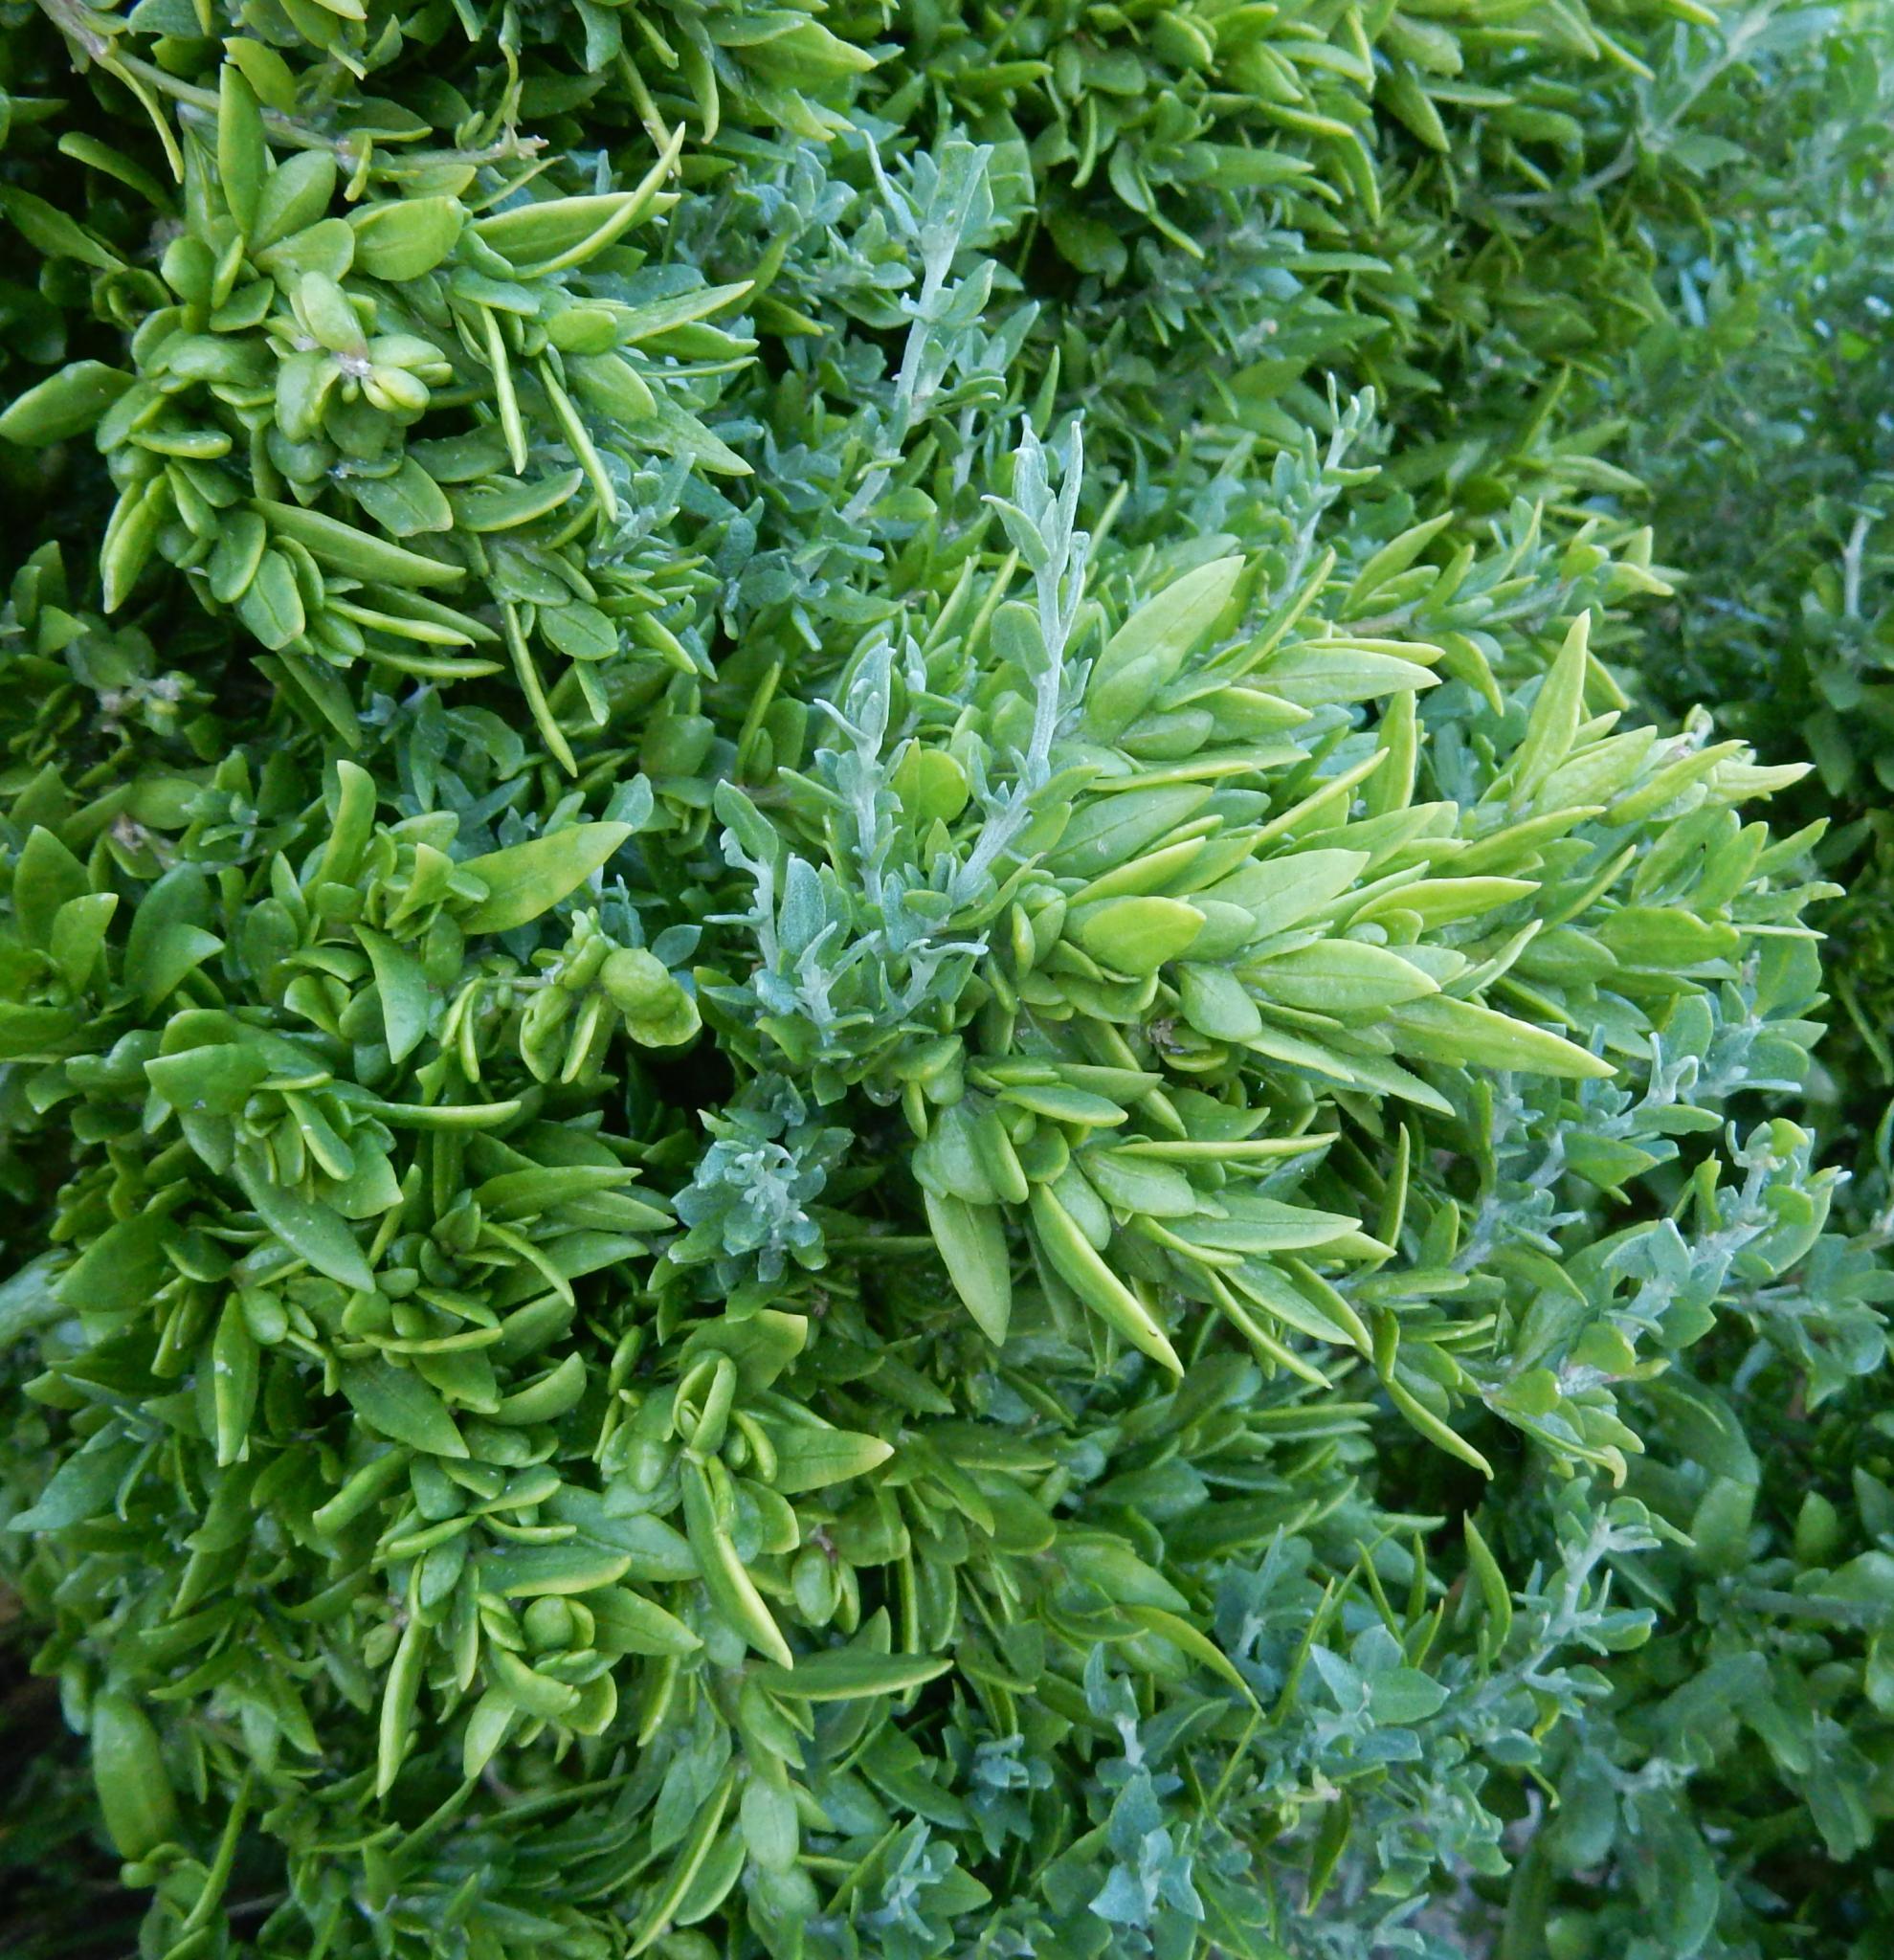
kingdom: Plantae
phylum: Tracheophyta
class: Magnoliopsida
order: Caryophyllales
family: Amaranthaceae
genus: Exomis
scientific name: Exomis microphylla
